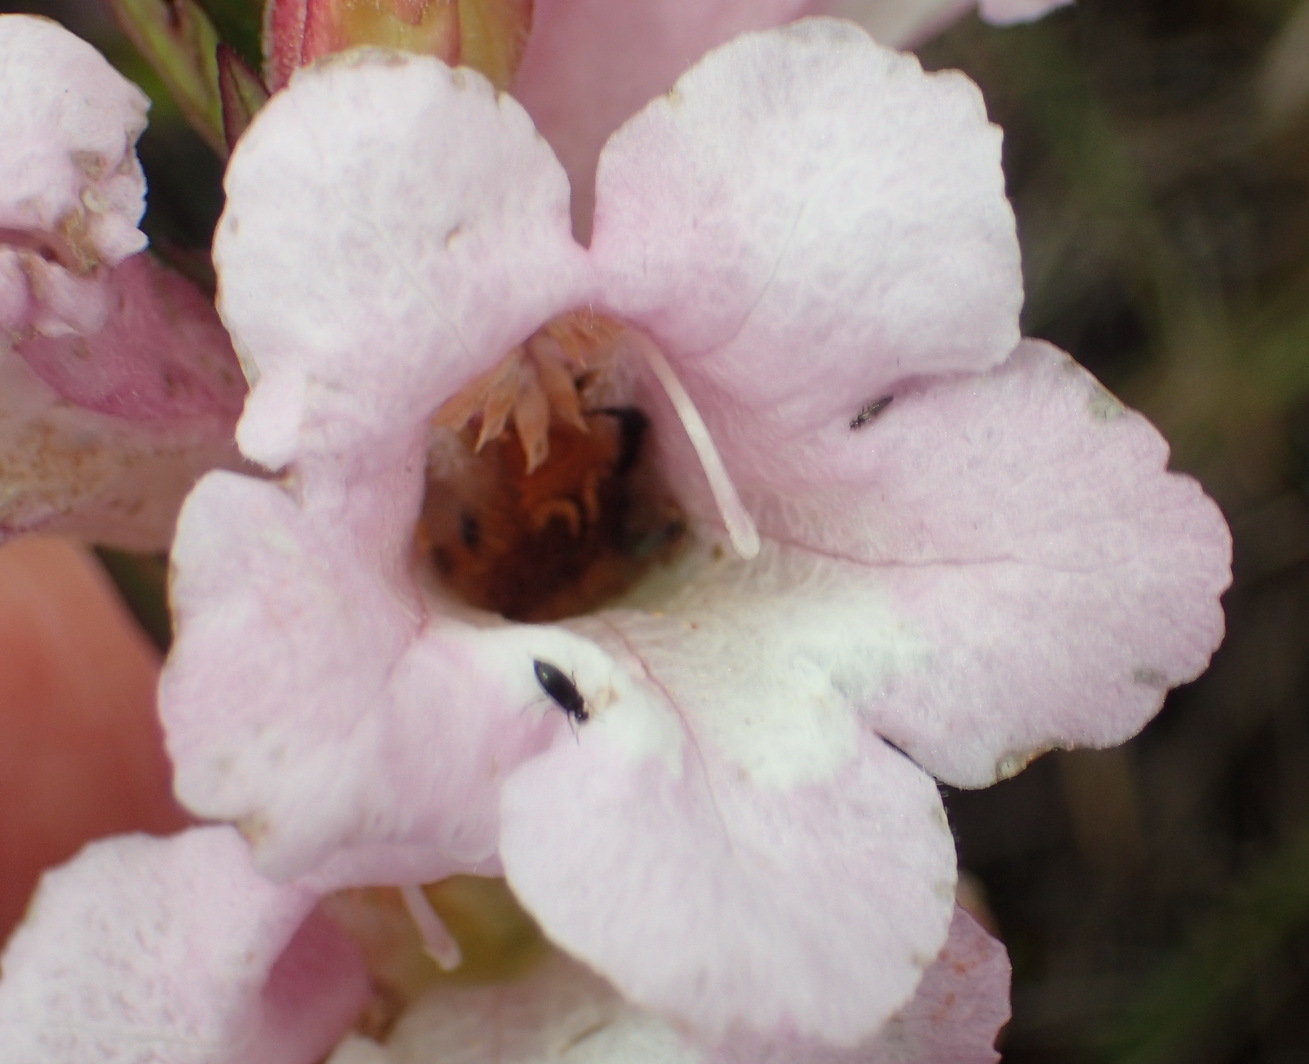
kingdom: Plantae
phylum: Tracheophyta
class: Magnoliopsida
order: Lamiales
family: Orobanchaceae
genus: Graderia
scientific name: Graderia scabra
